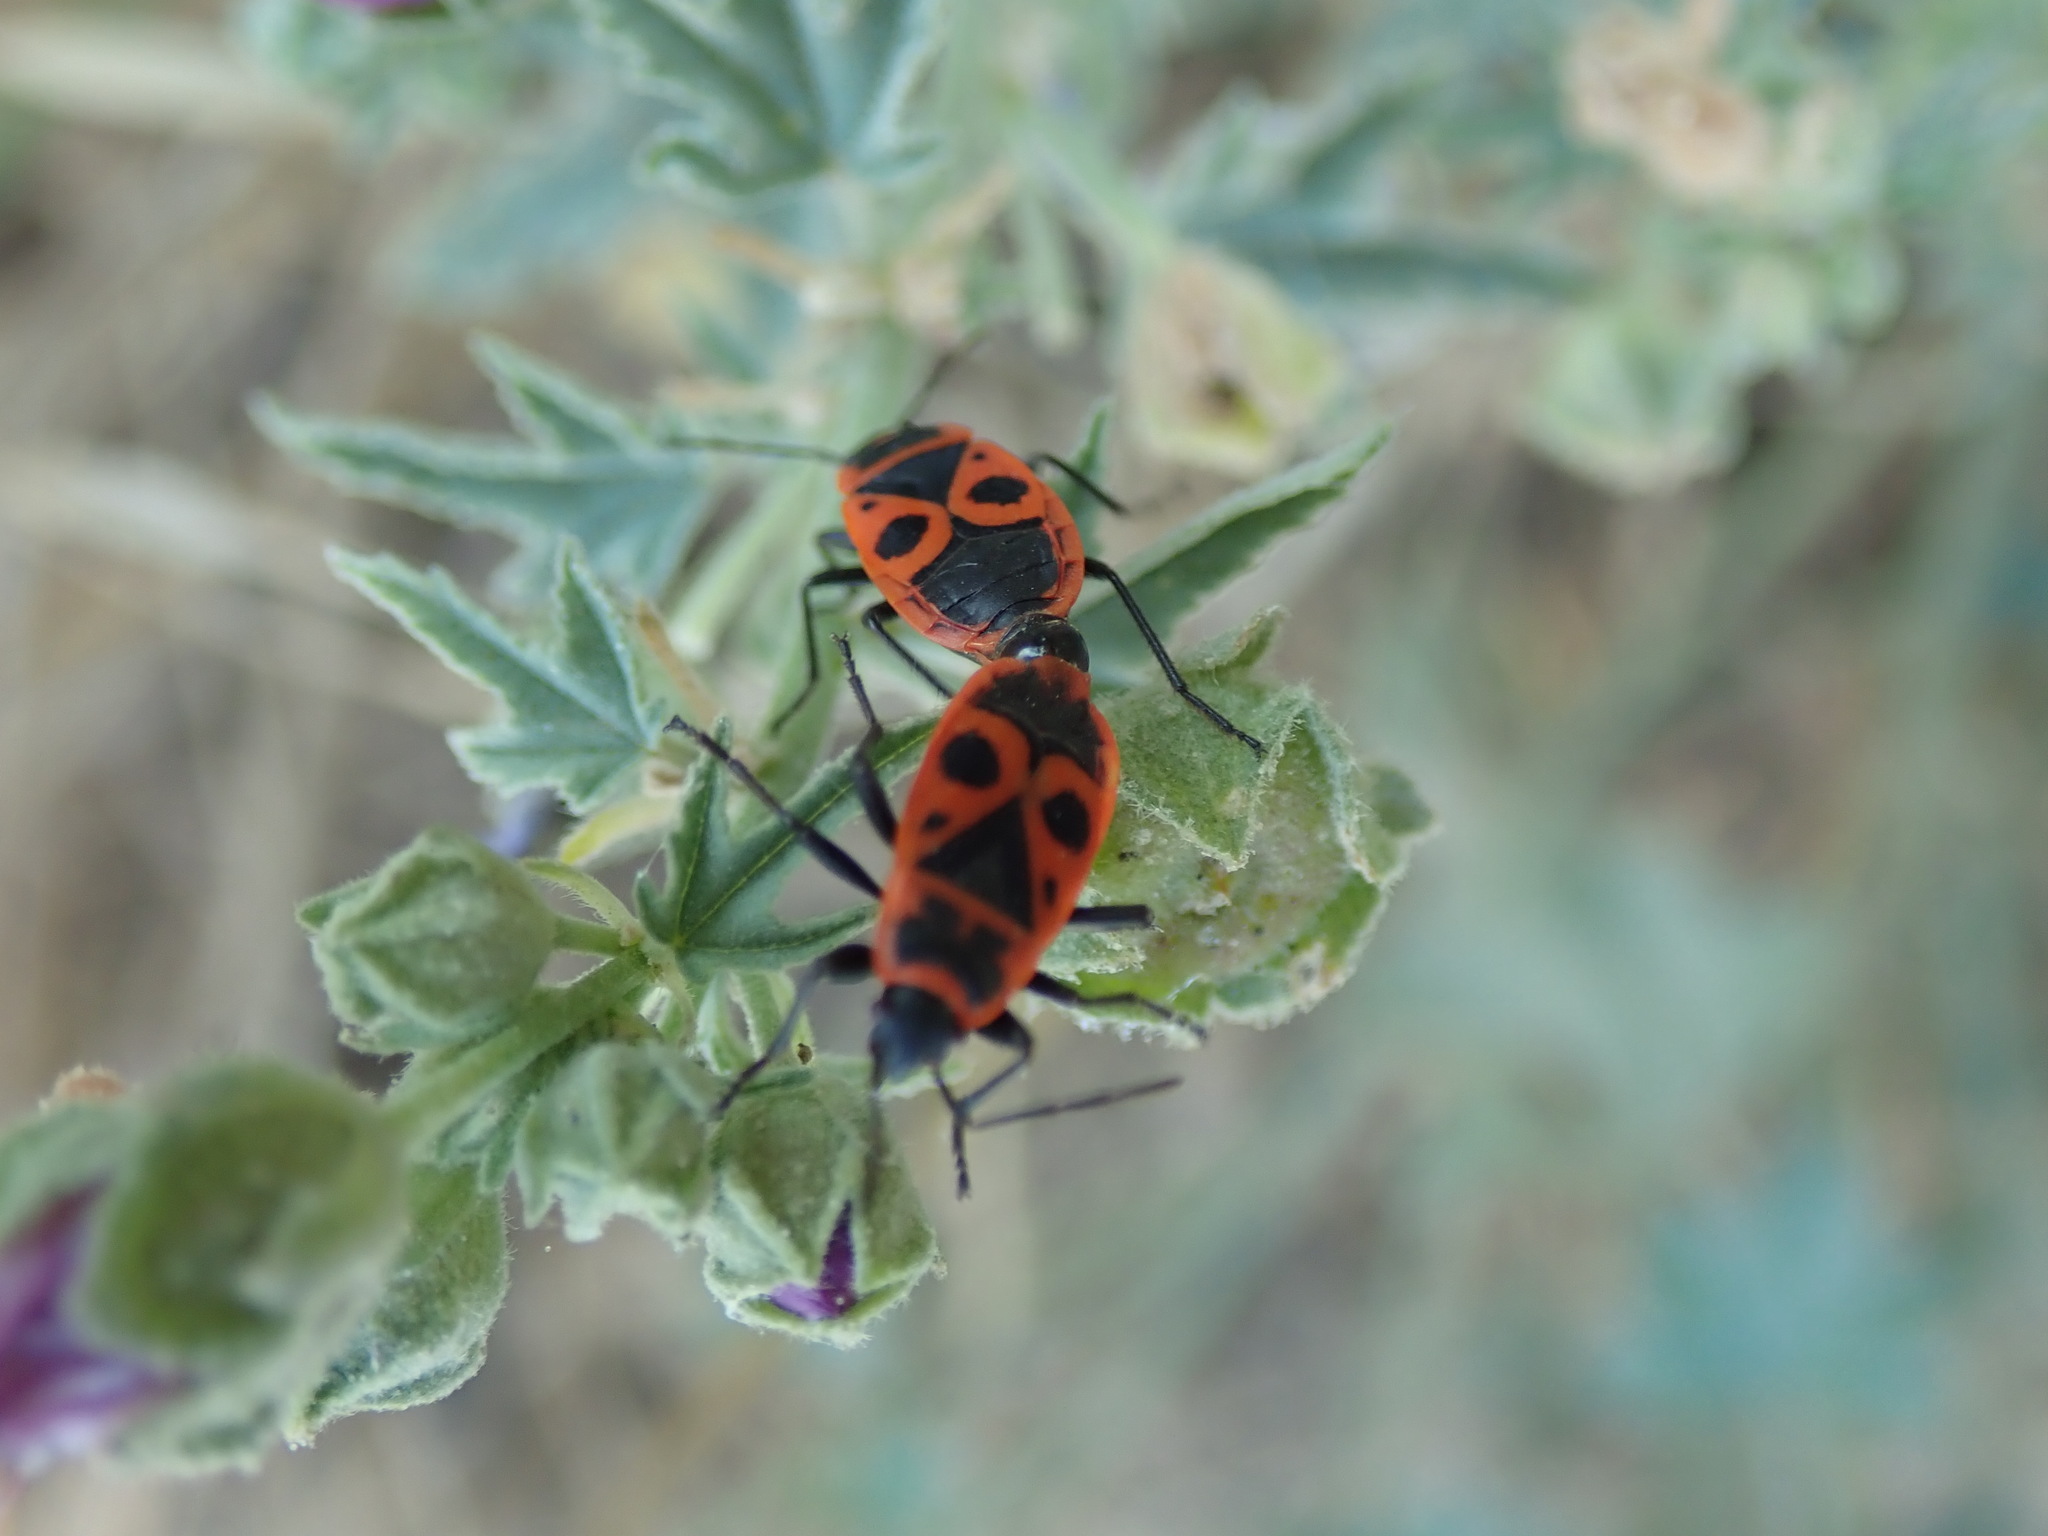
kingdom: Animalia
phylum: Arthropoda
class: Insecta
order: Hemiptera
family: Pyrrhocoridae
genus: Pyrrhocoris
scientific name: Pyrrhocoris apterus
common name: Firebug
